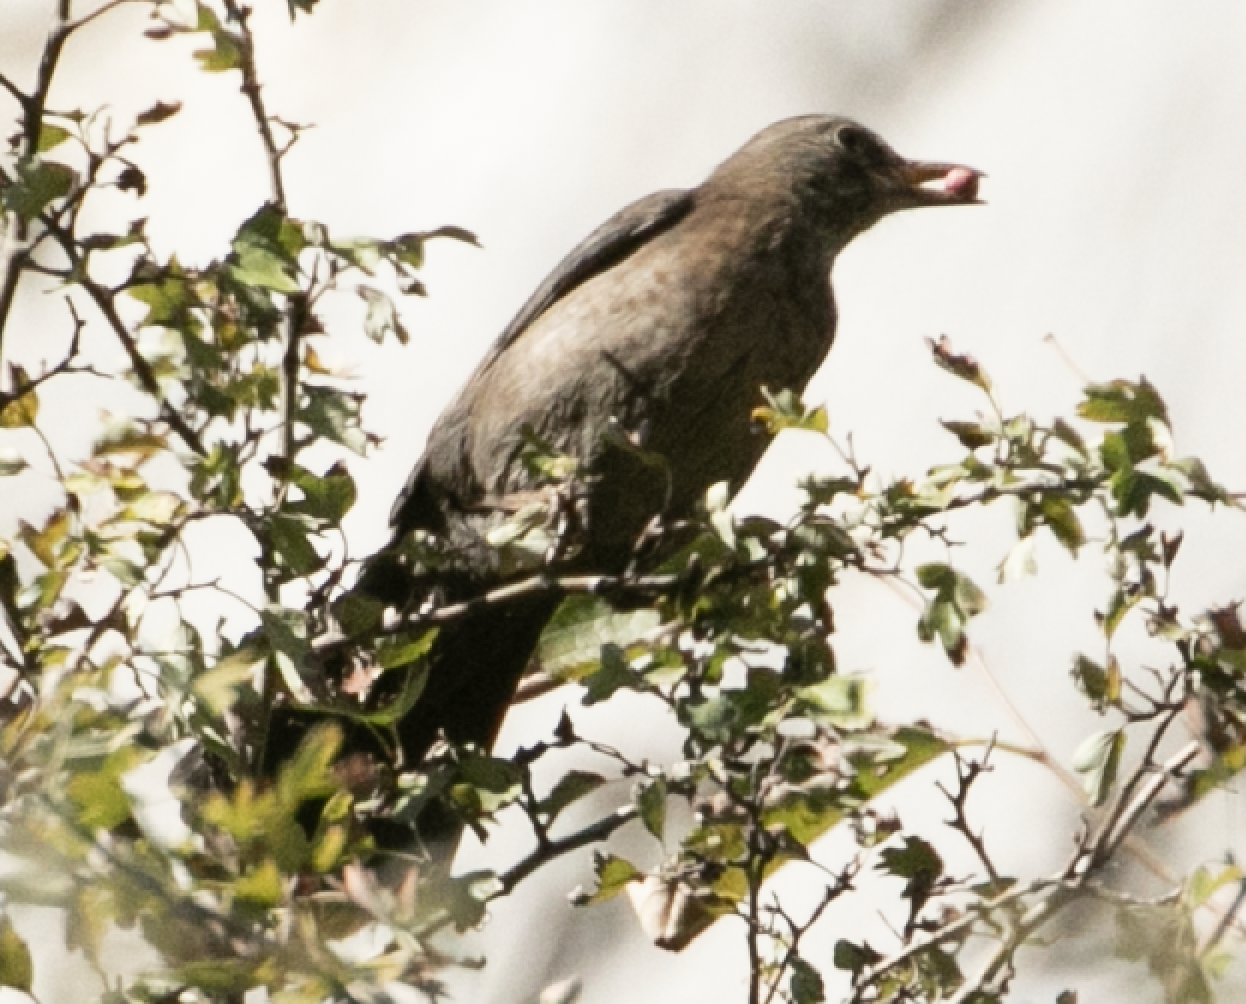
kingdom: Animalia
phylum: Chordata
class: Aves
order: Passeriformes
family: Turdidae
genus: Turdus
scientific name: Turdus merula
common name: Common blackbird
